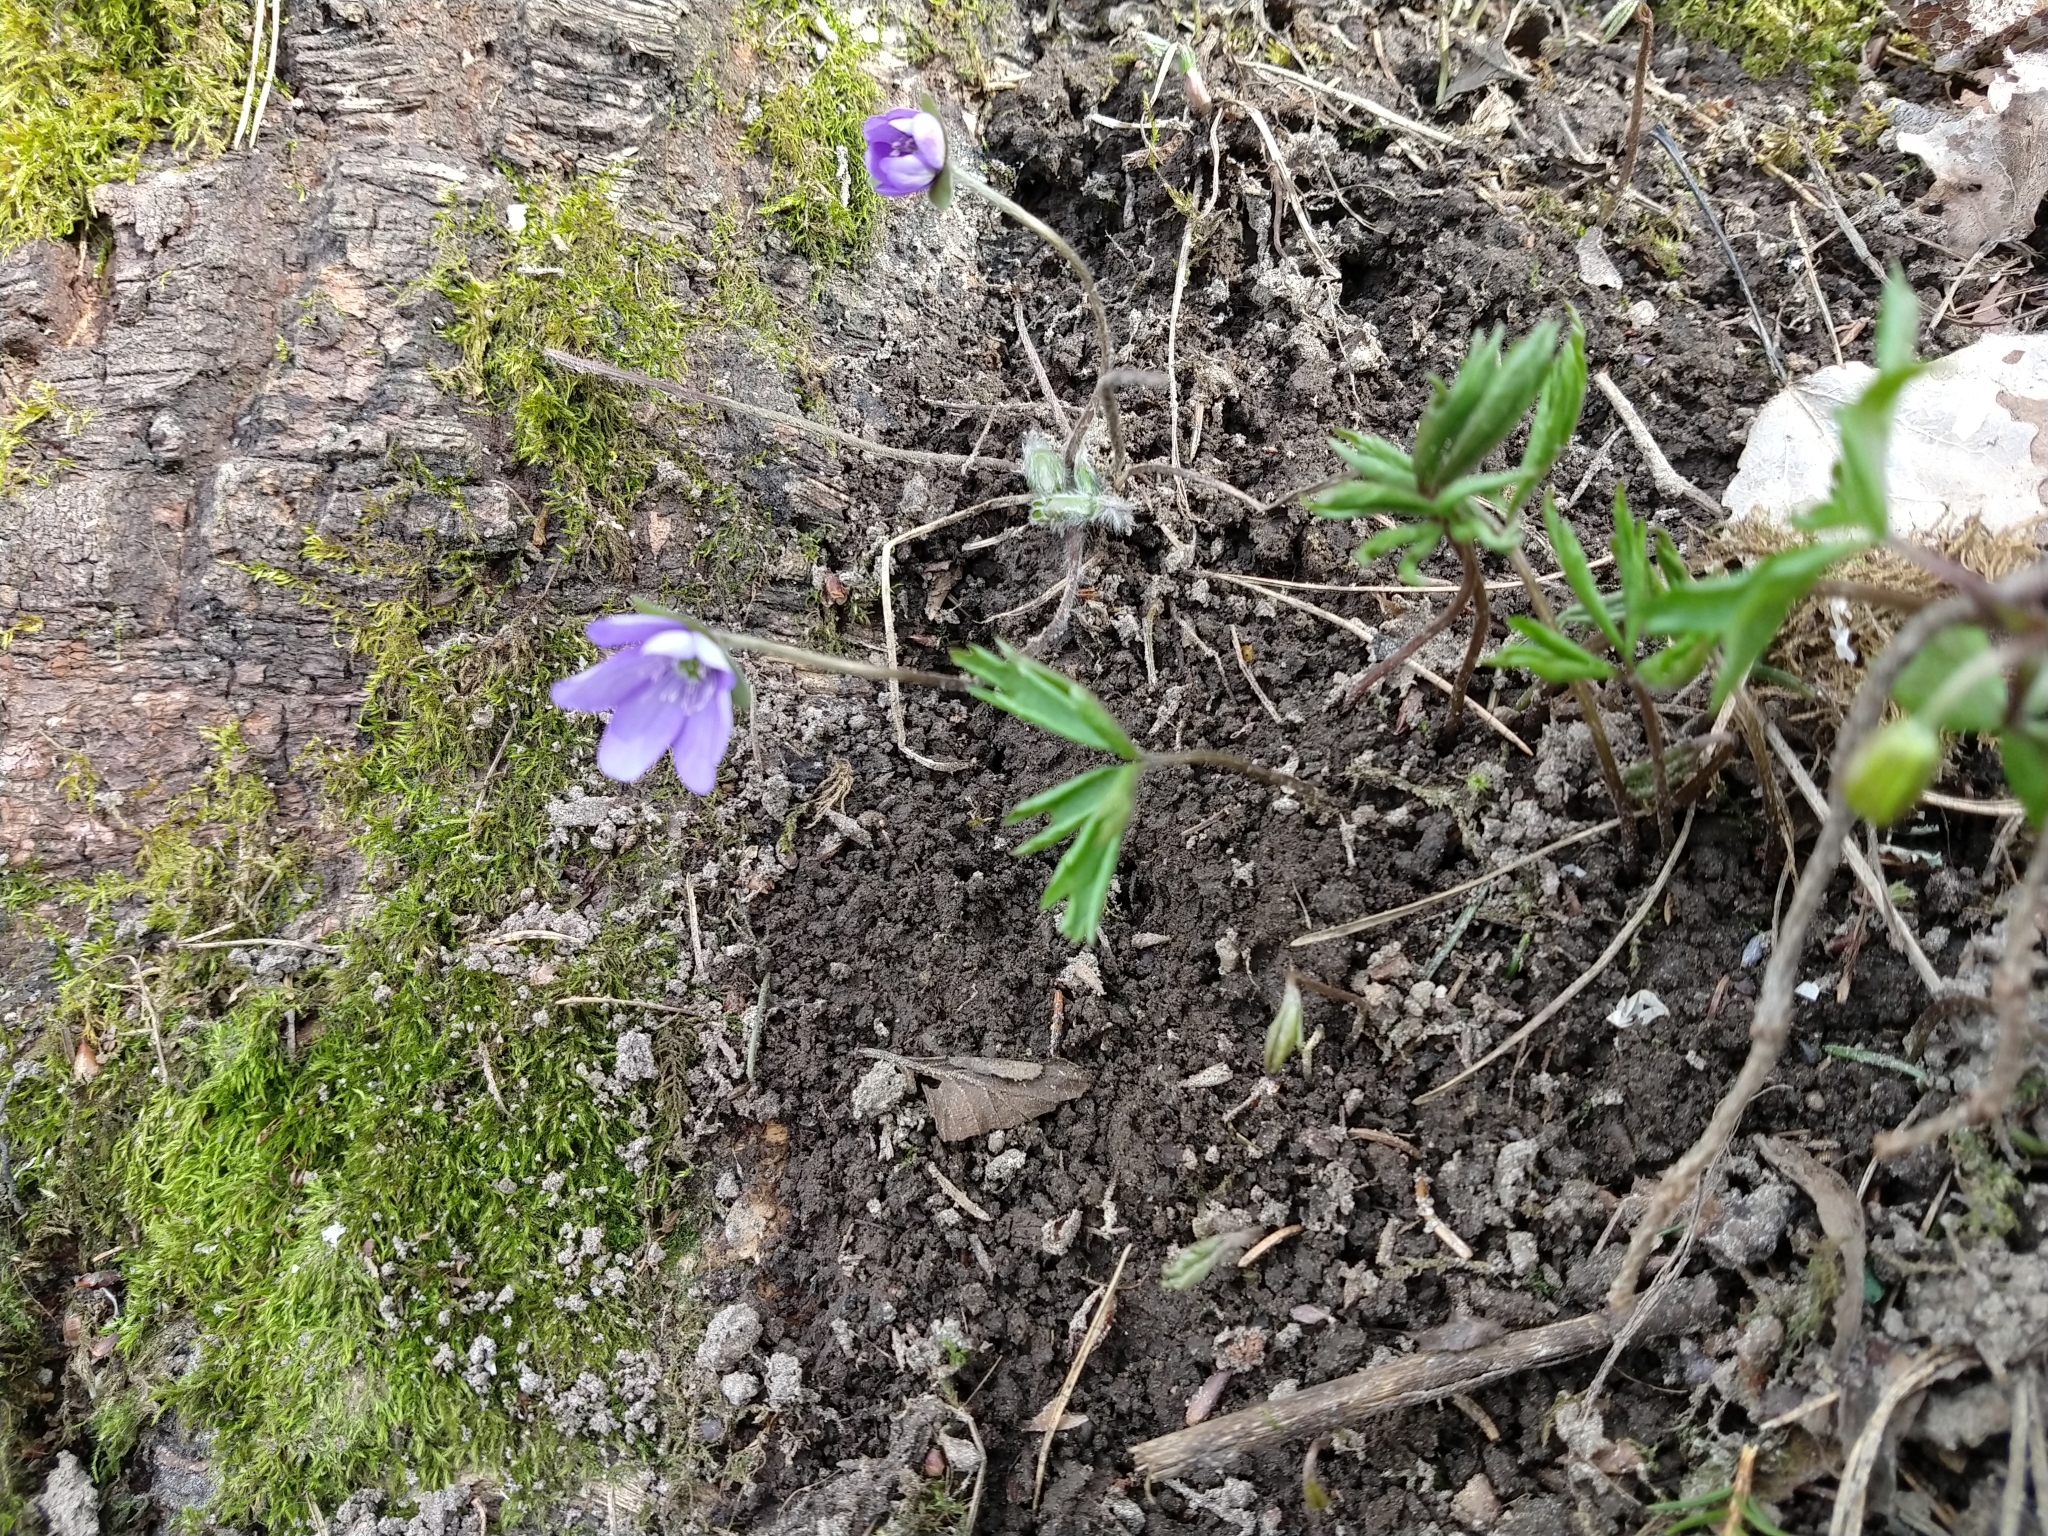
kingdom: Plantae
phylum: Tracheophyta
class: Magnoliopsida
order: Ranunculales
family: Ranunculaceae
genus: Hepatica
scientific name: Hepatica nobilis
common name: Liverleaf
